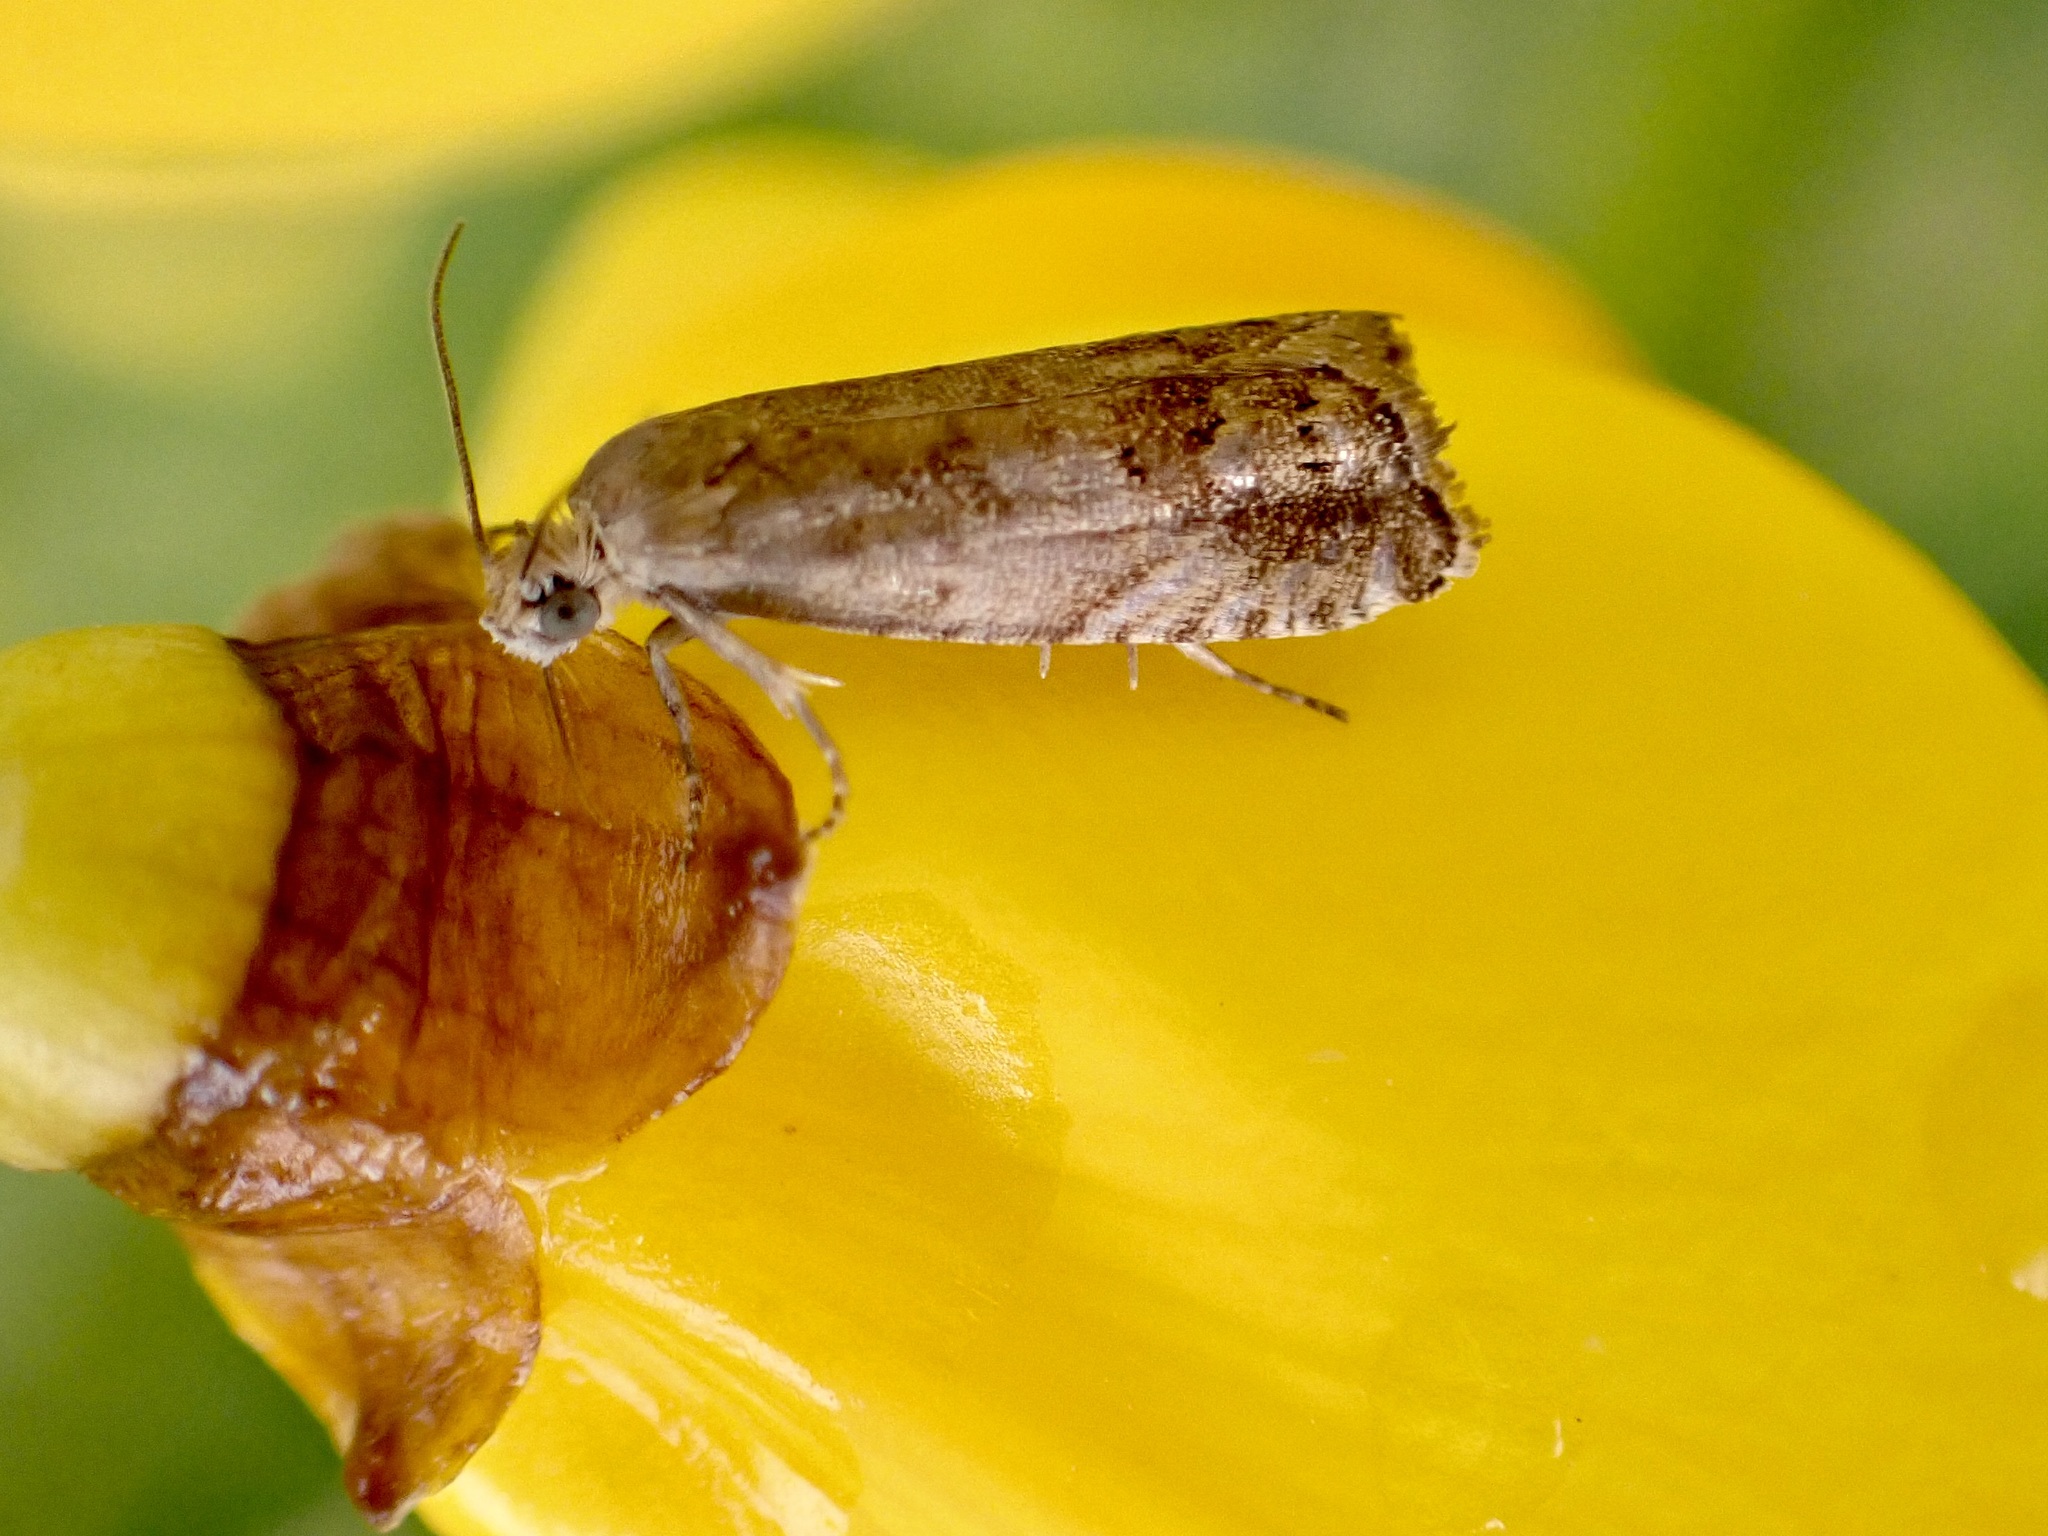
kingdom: Animalia
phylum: Arthropoda
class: Insecta
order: Lepidoptera
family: Tortricidae
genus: Cydia
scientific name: Cydia succedana
